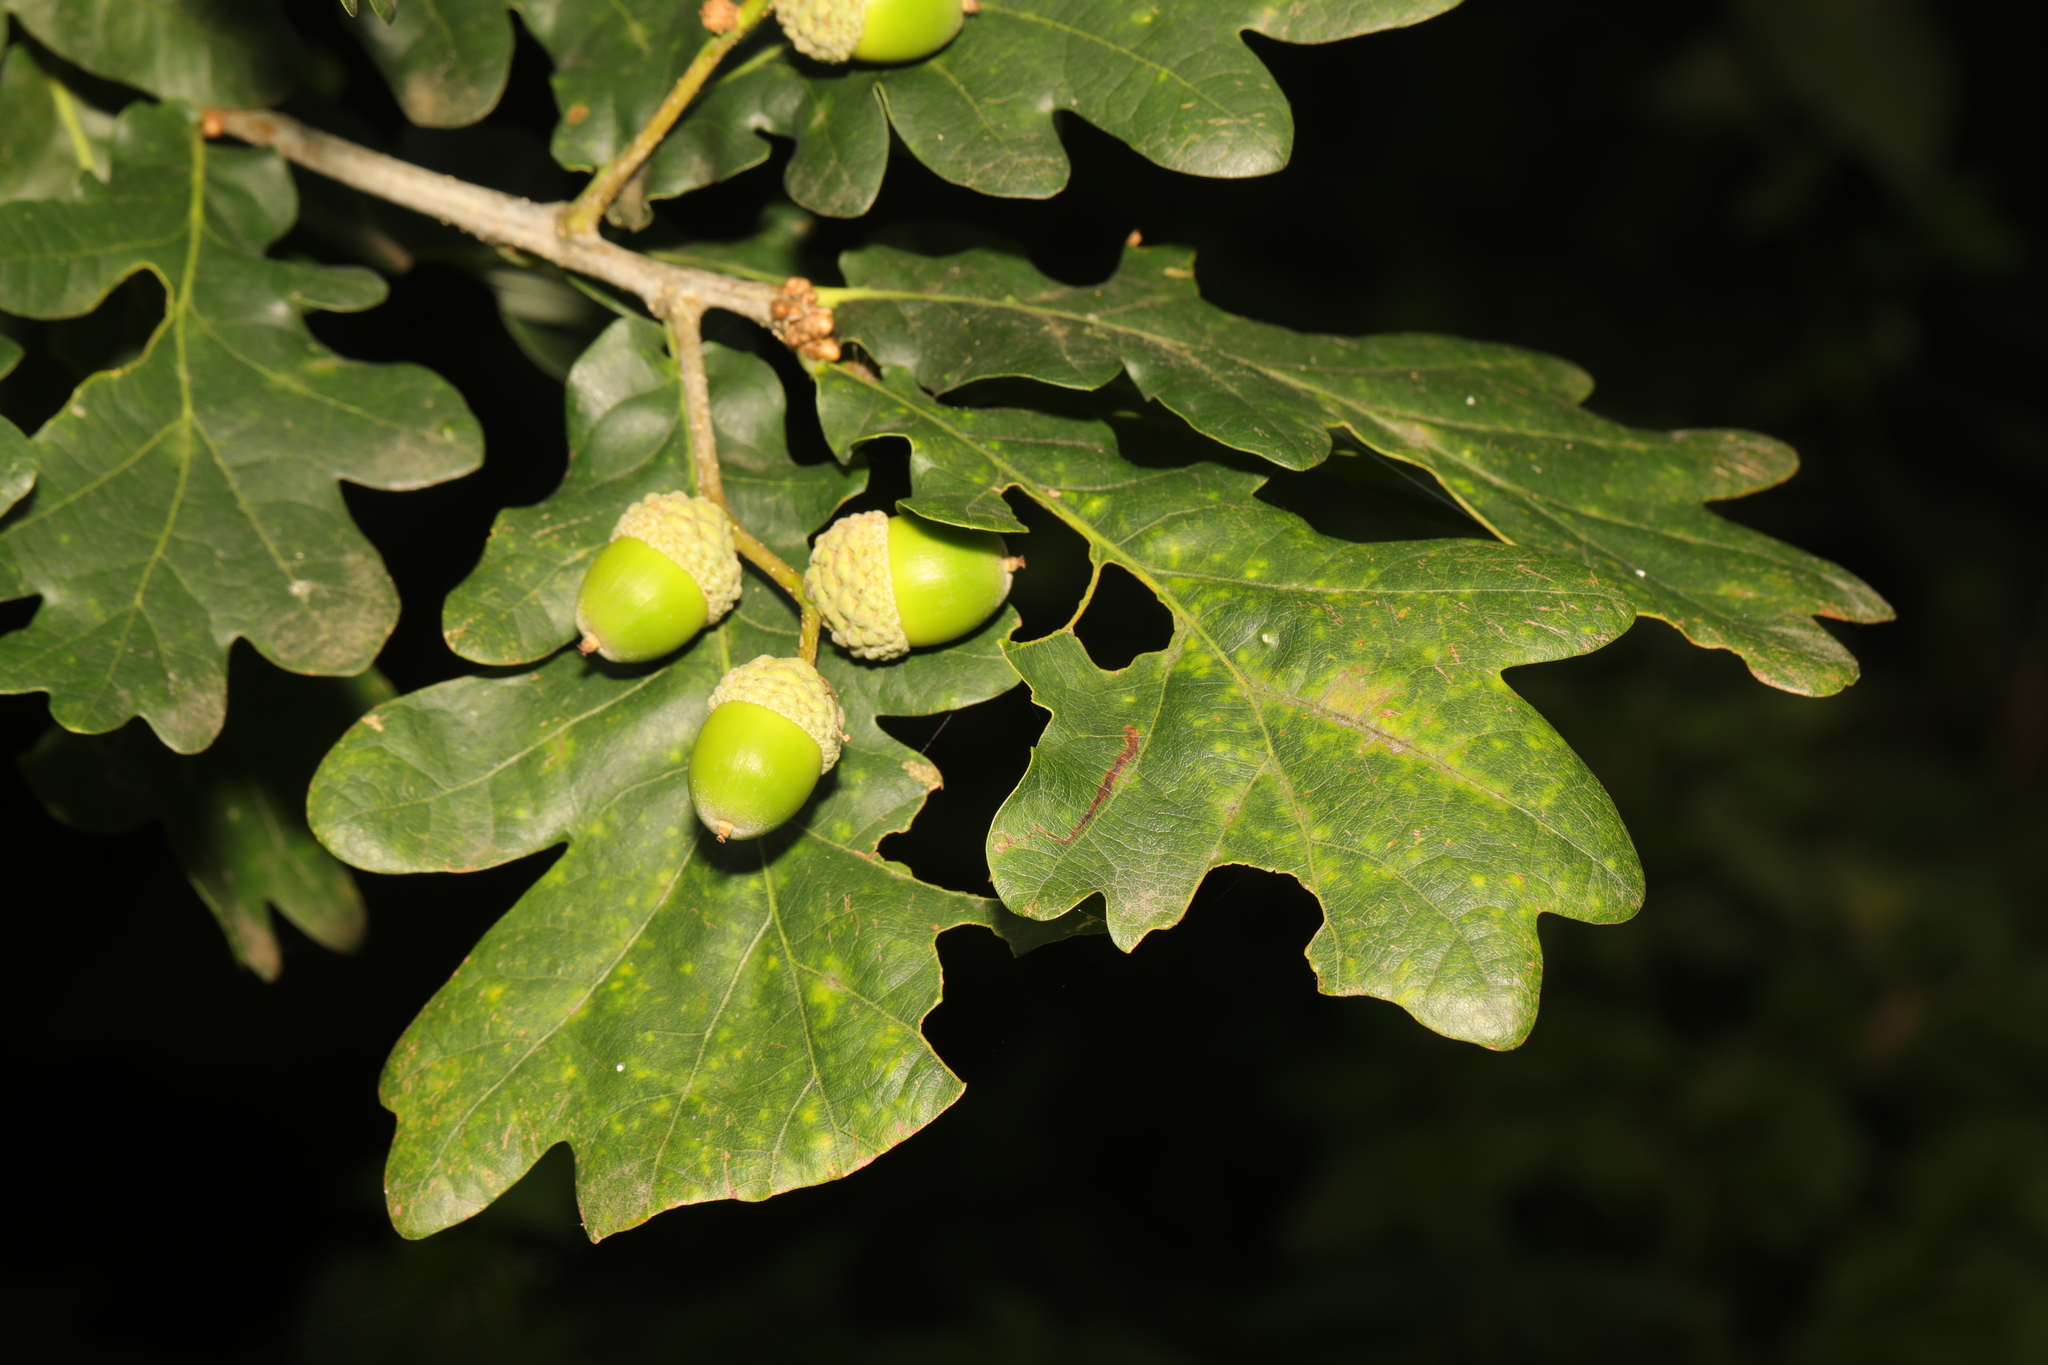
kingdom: Plantae
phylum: Tracheophyta
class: Magnoliopsida
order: Fagales
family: Fagaceae
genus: Quercus
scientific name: Quercus robur
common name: Pedunculate oak
